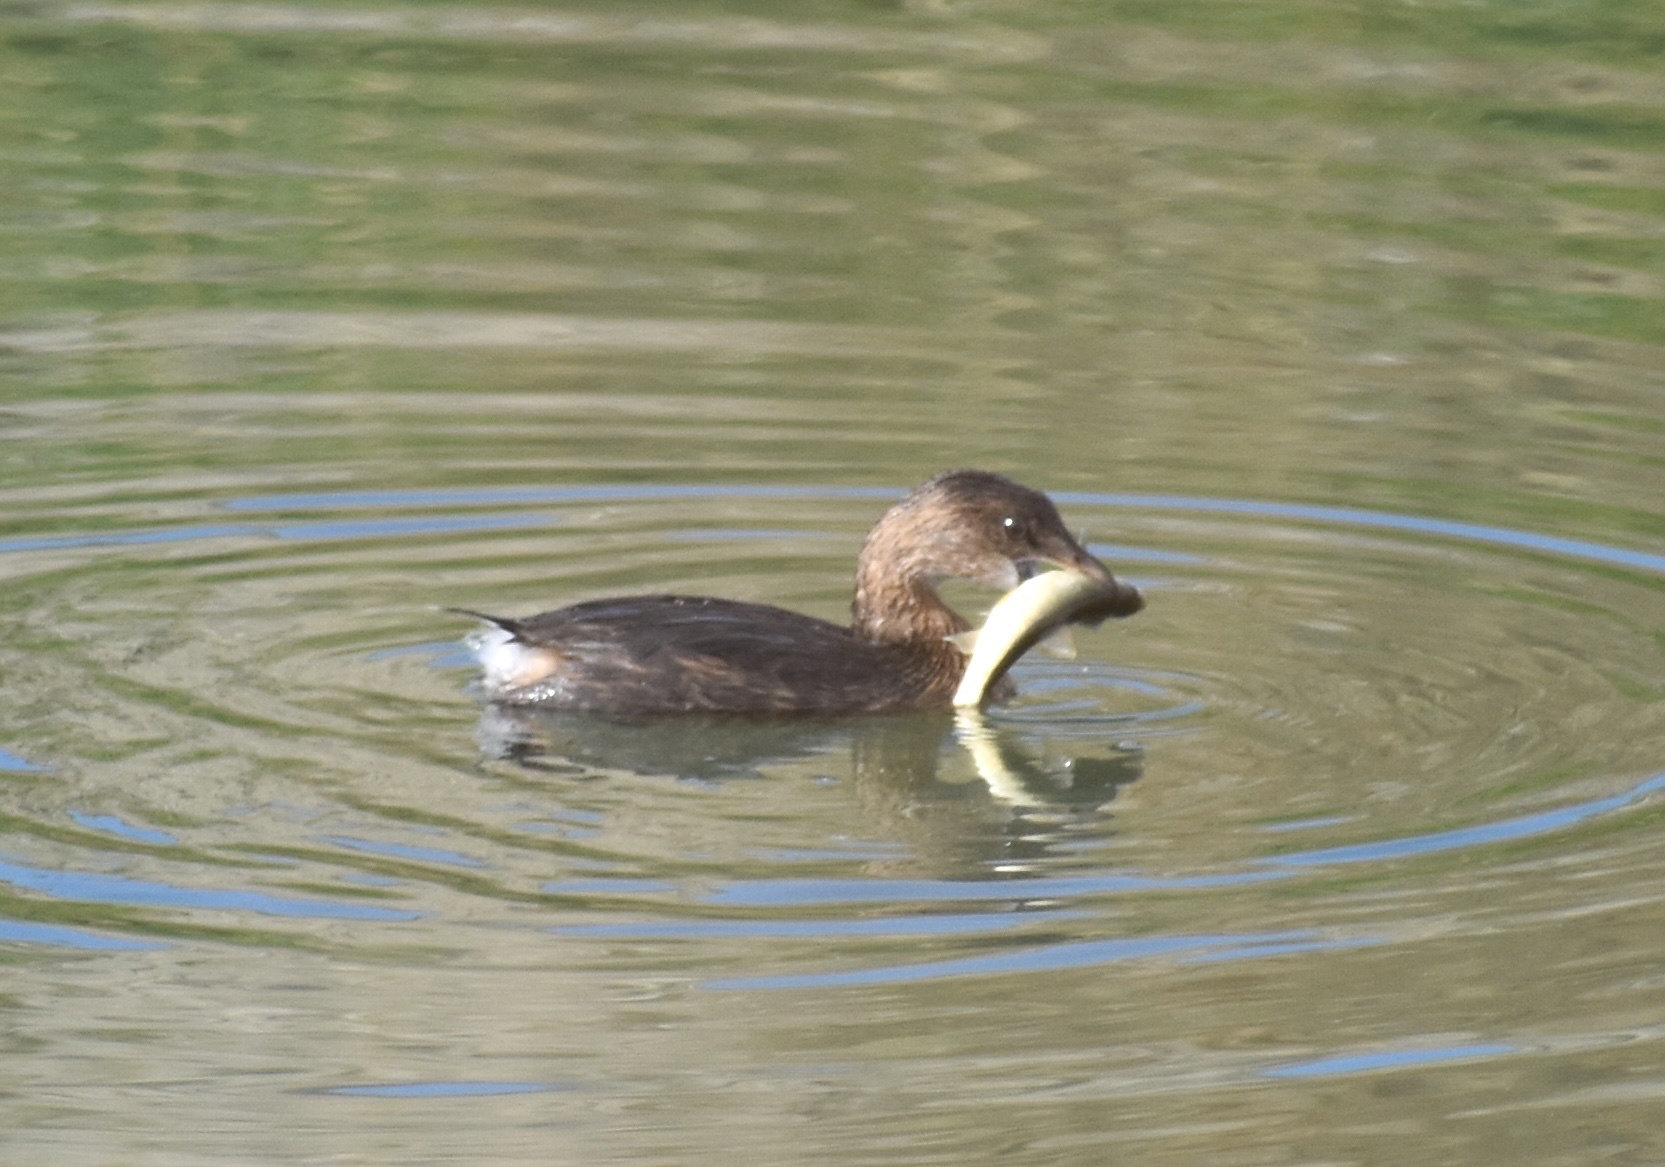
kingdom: Animalia
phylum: Chordata
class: Aves
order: Podicipediformes
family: Podicipedidae
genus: Podilymbus
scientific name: Podilymbus podiceps
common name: Pied-billed grebe
